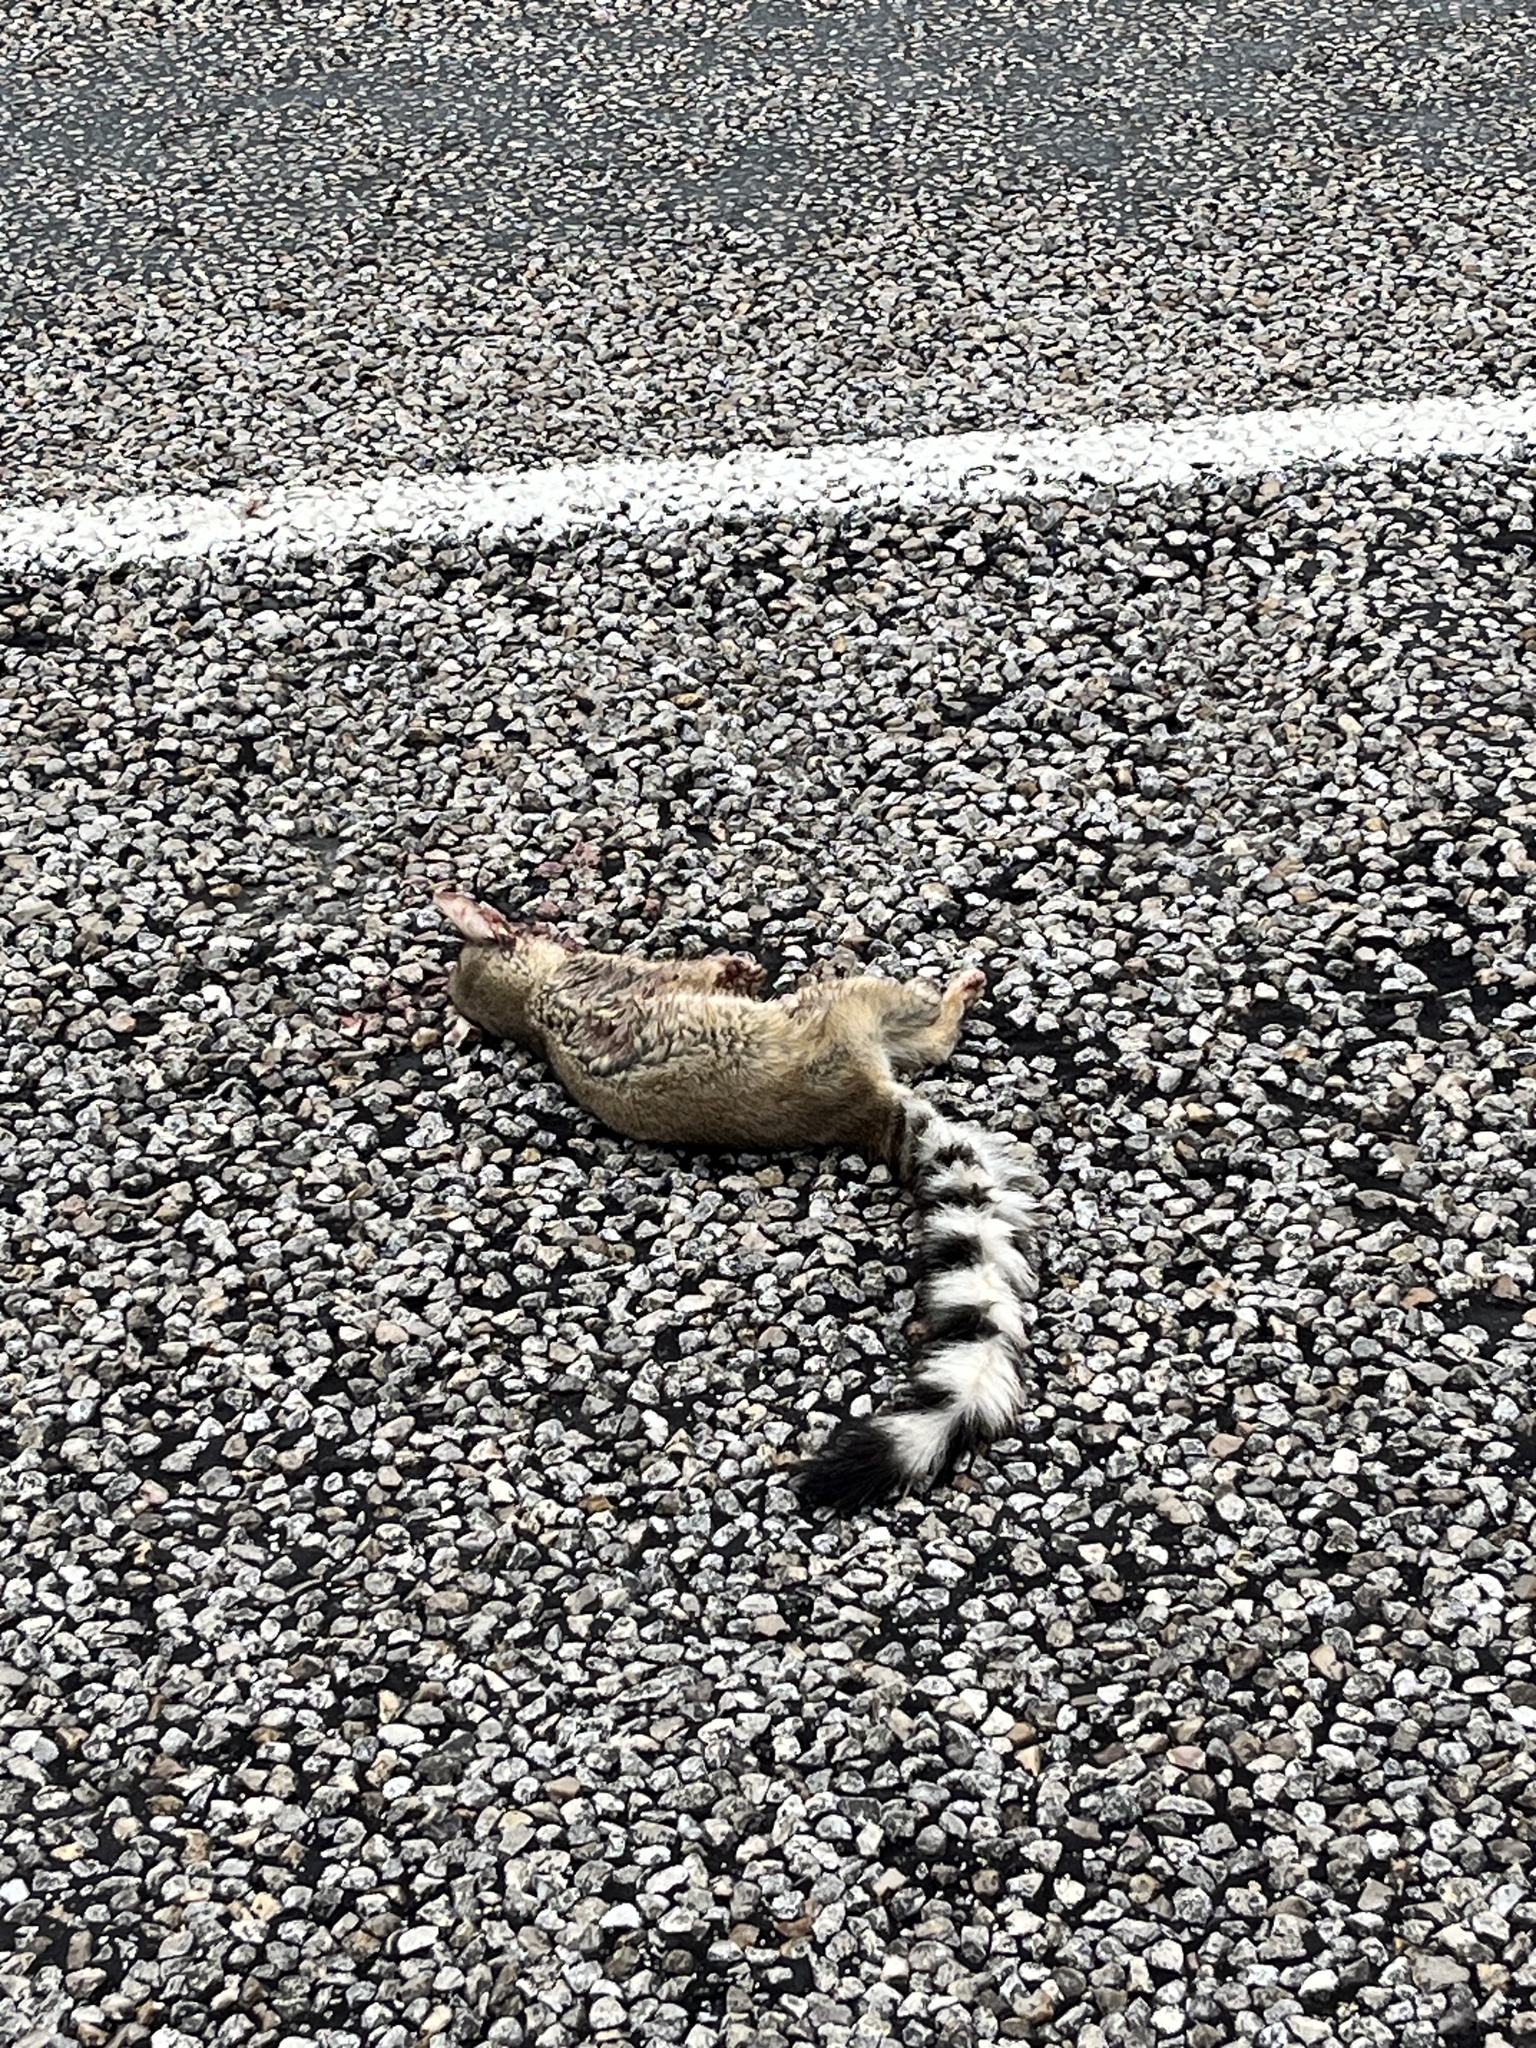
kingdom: Animalia
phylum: Chordata
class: Mammalia
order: Carnivora
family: Procyonidae
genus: Bassariscus
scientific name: Bassariscus astutus
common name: Ringtail
